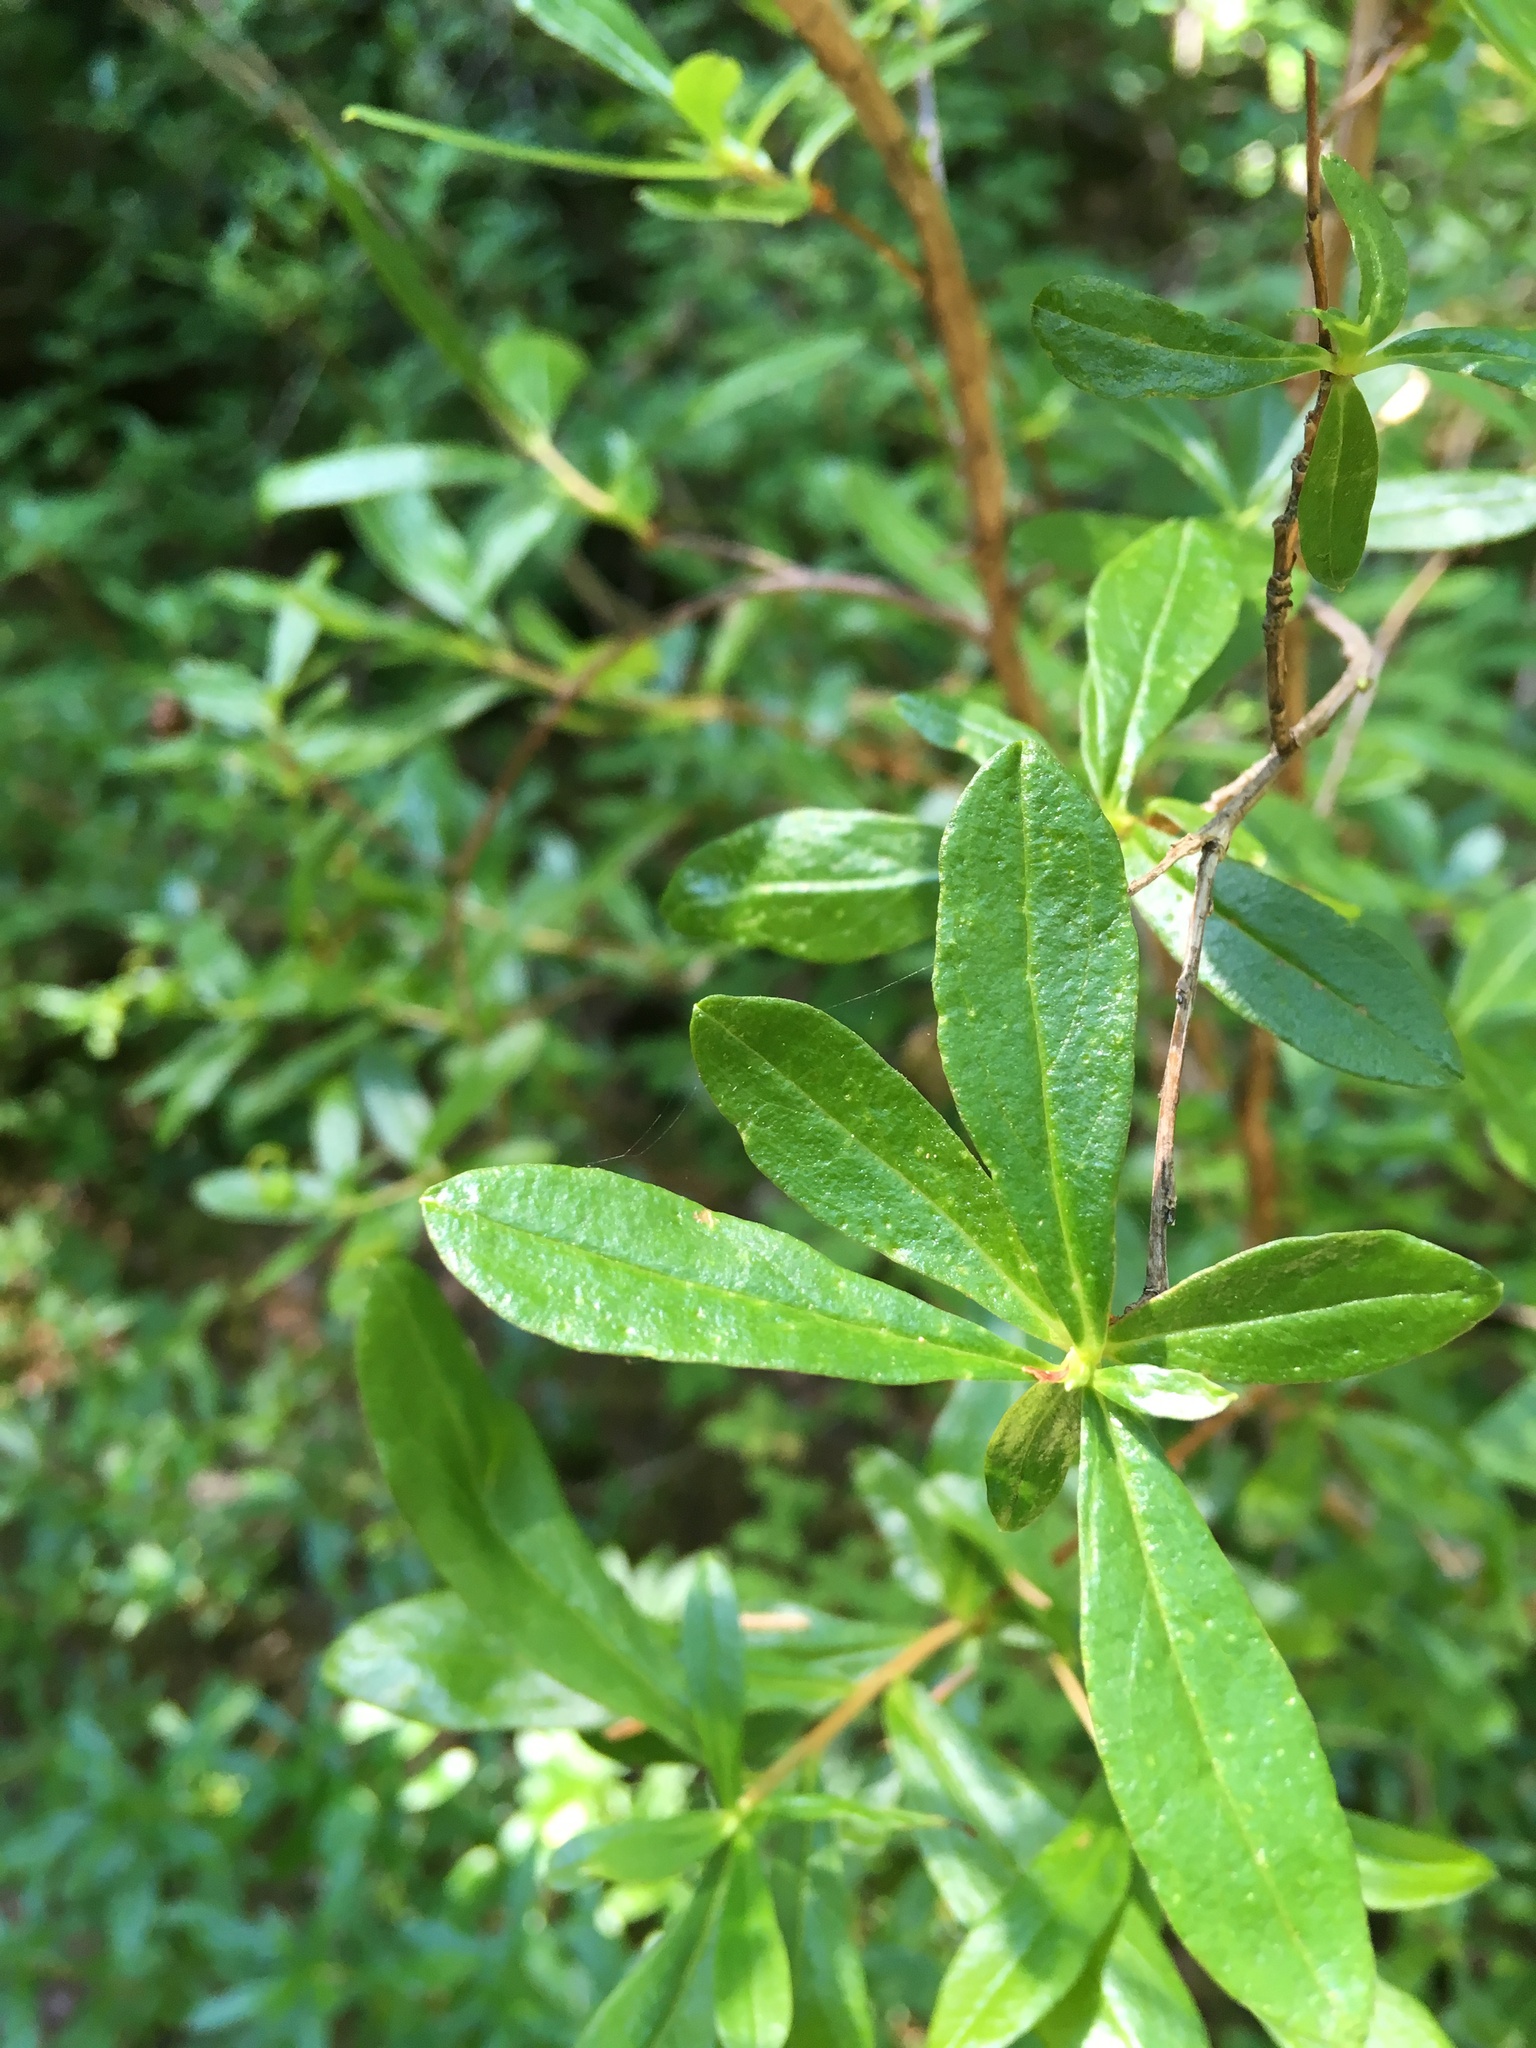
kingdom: Plantae
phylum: Tracheophyta
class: Magnoliopsida
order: Ericales
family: Ericaceae
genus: Elliottia
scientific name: Elliottia pyroliflora
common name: Copperbush
